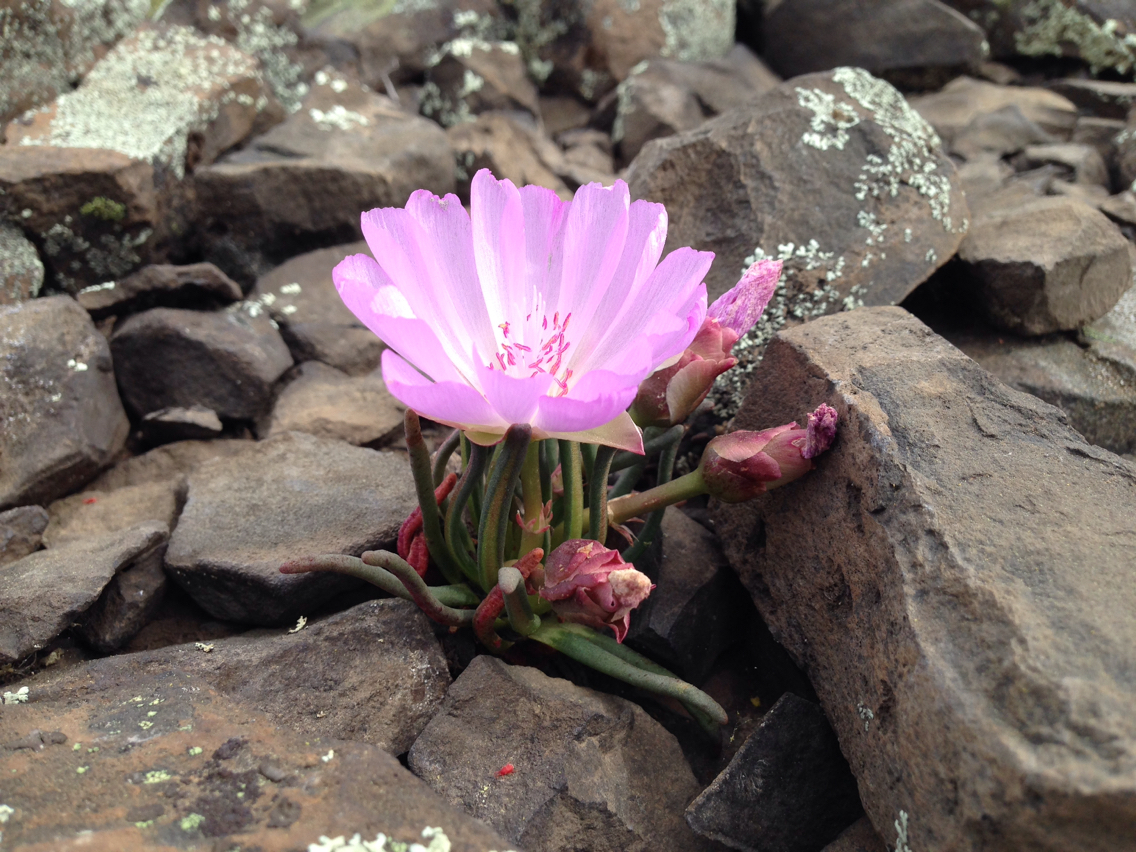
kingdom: Plantae
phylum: Tracheophyta
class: Magnoliopsida
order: Caryophyllales
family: Montiaceae
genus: Lewisia
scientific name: Lewisia rediviva
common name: Bitter-root
